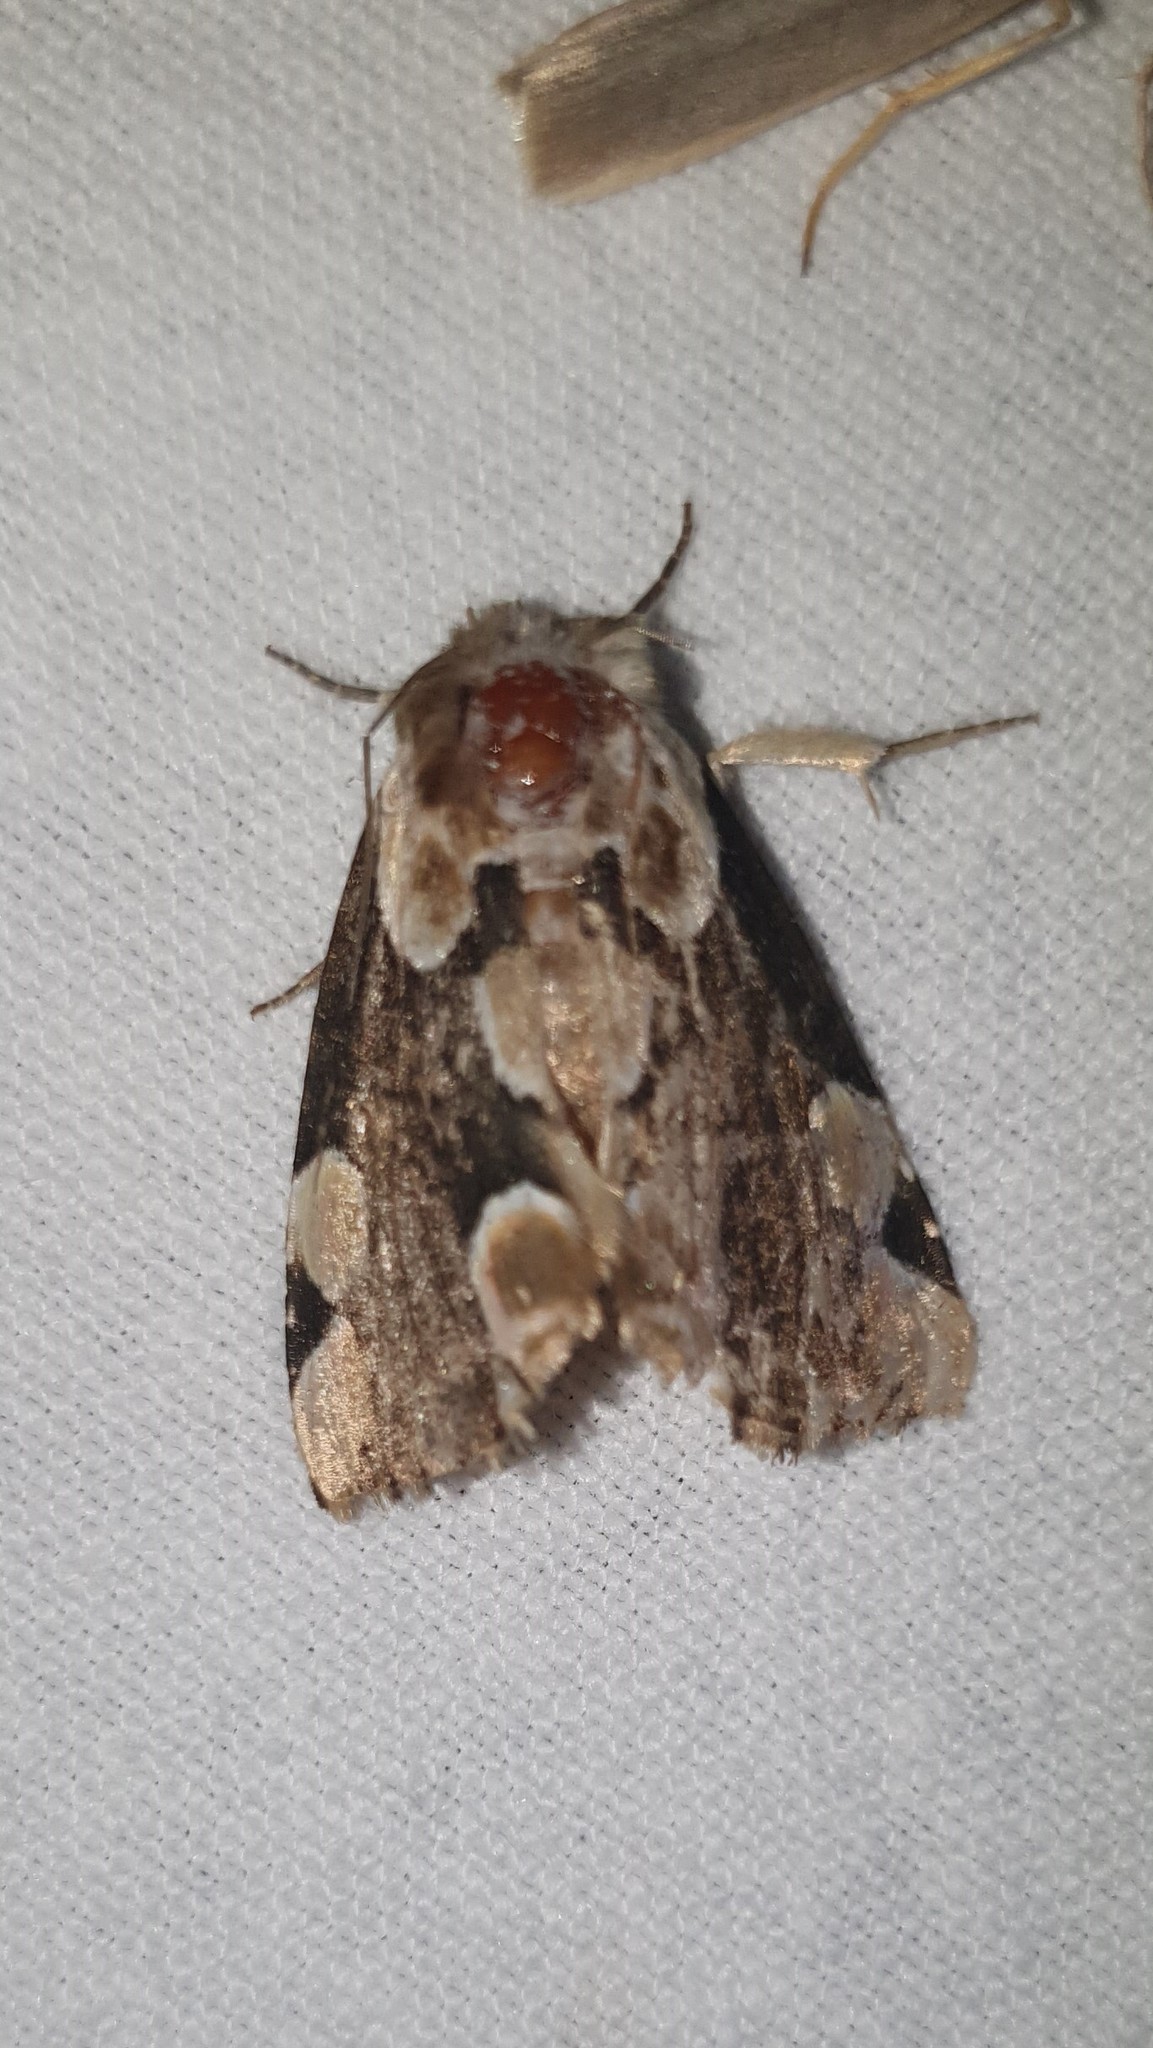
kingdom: Animalia
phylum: Arthropoda
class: Insecta
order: Lepidoptera
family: Drepanidae
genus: Thyatira
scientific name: Thyatira batis
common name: Peach blossom
